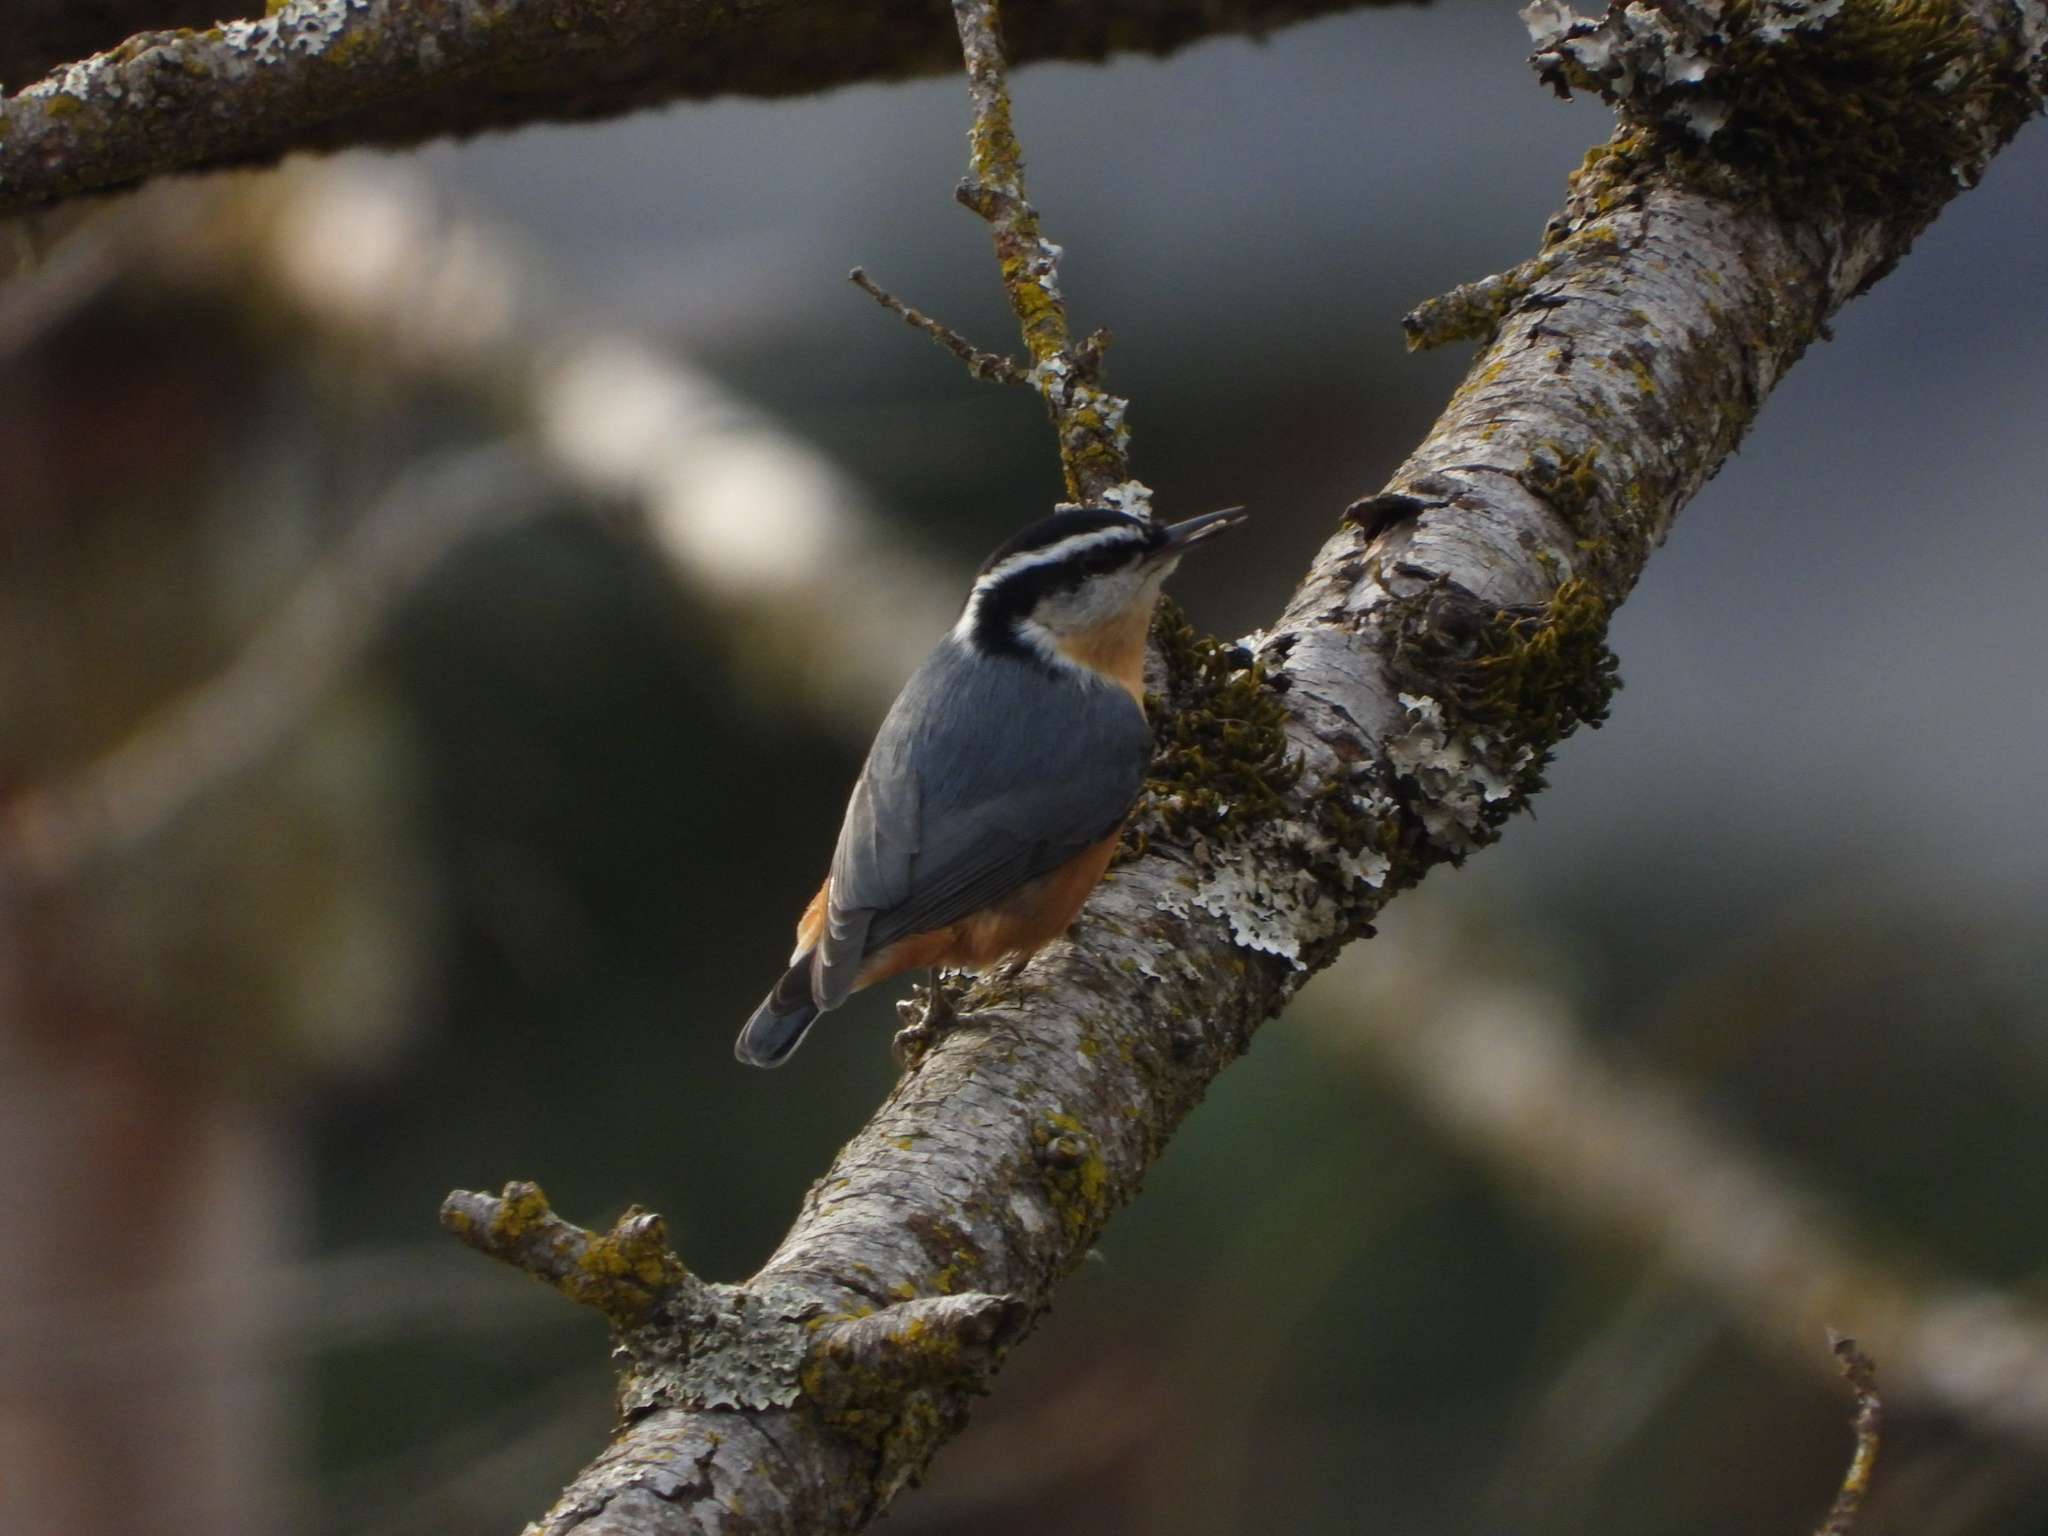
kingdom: Animalia
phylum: Chordata
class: Aves
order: Passeriformes
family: Sittidae
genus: Sitta
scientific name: Sitta canadensis
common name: Red-breasted nuthatch
